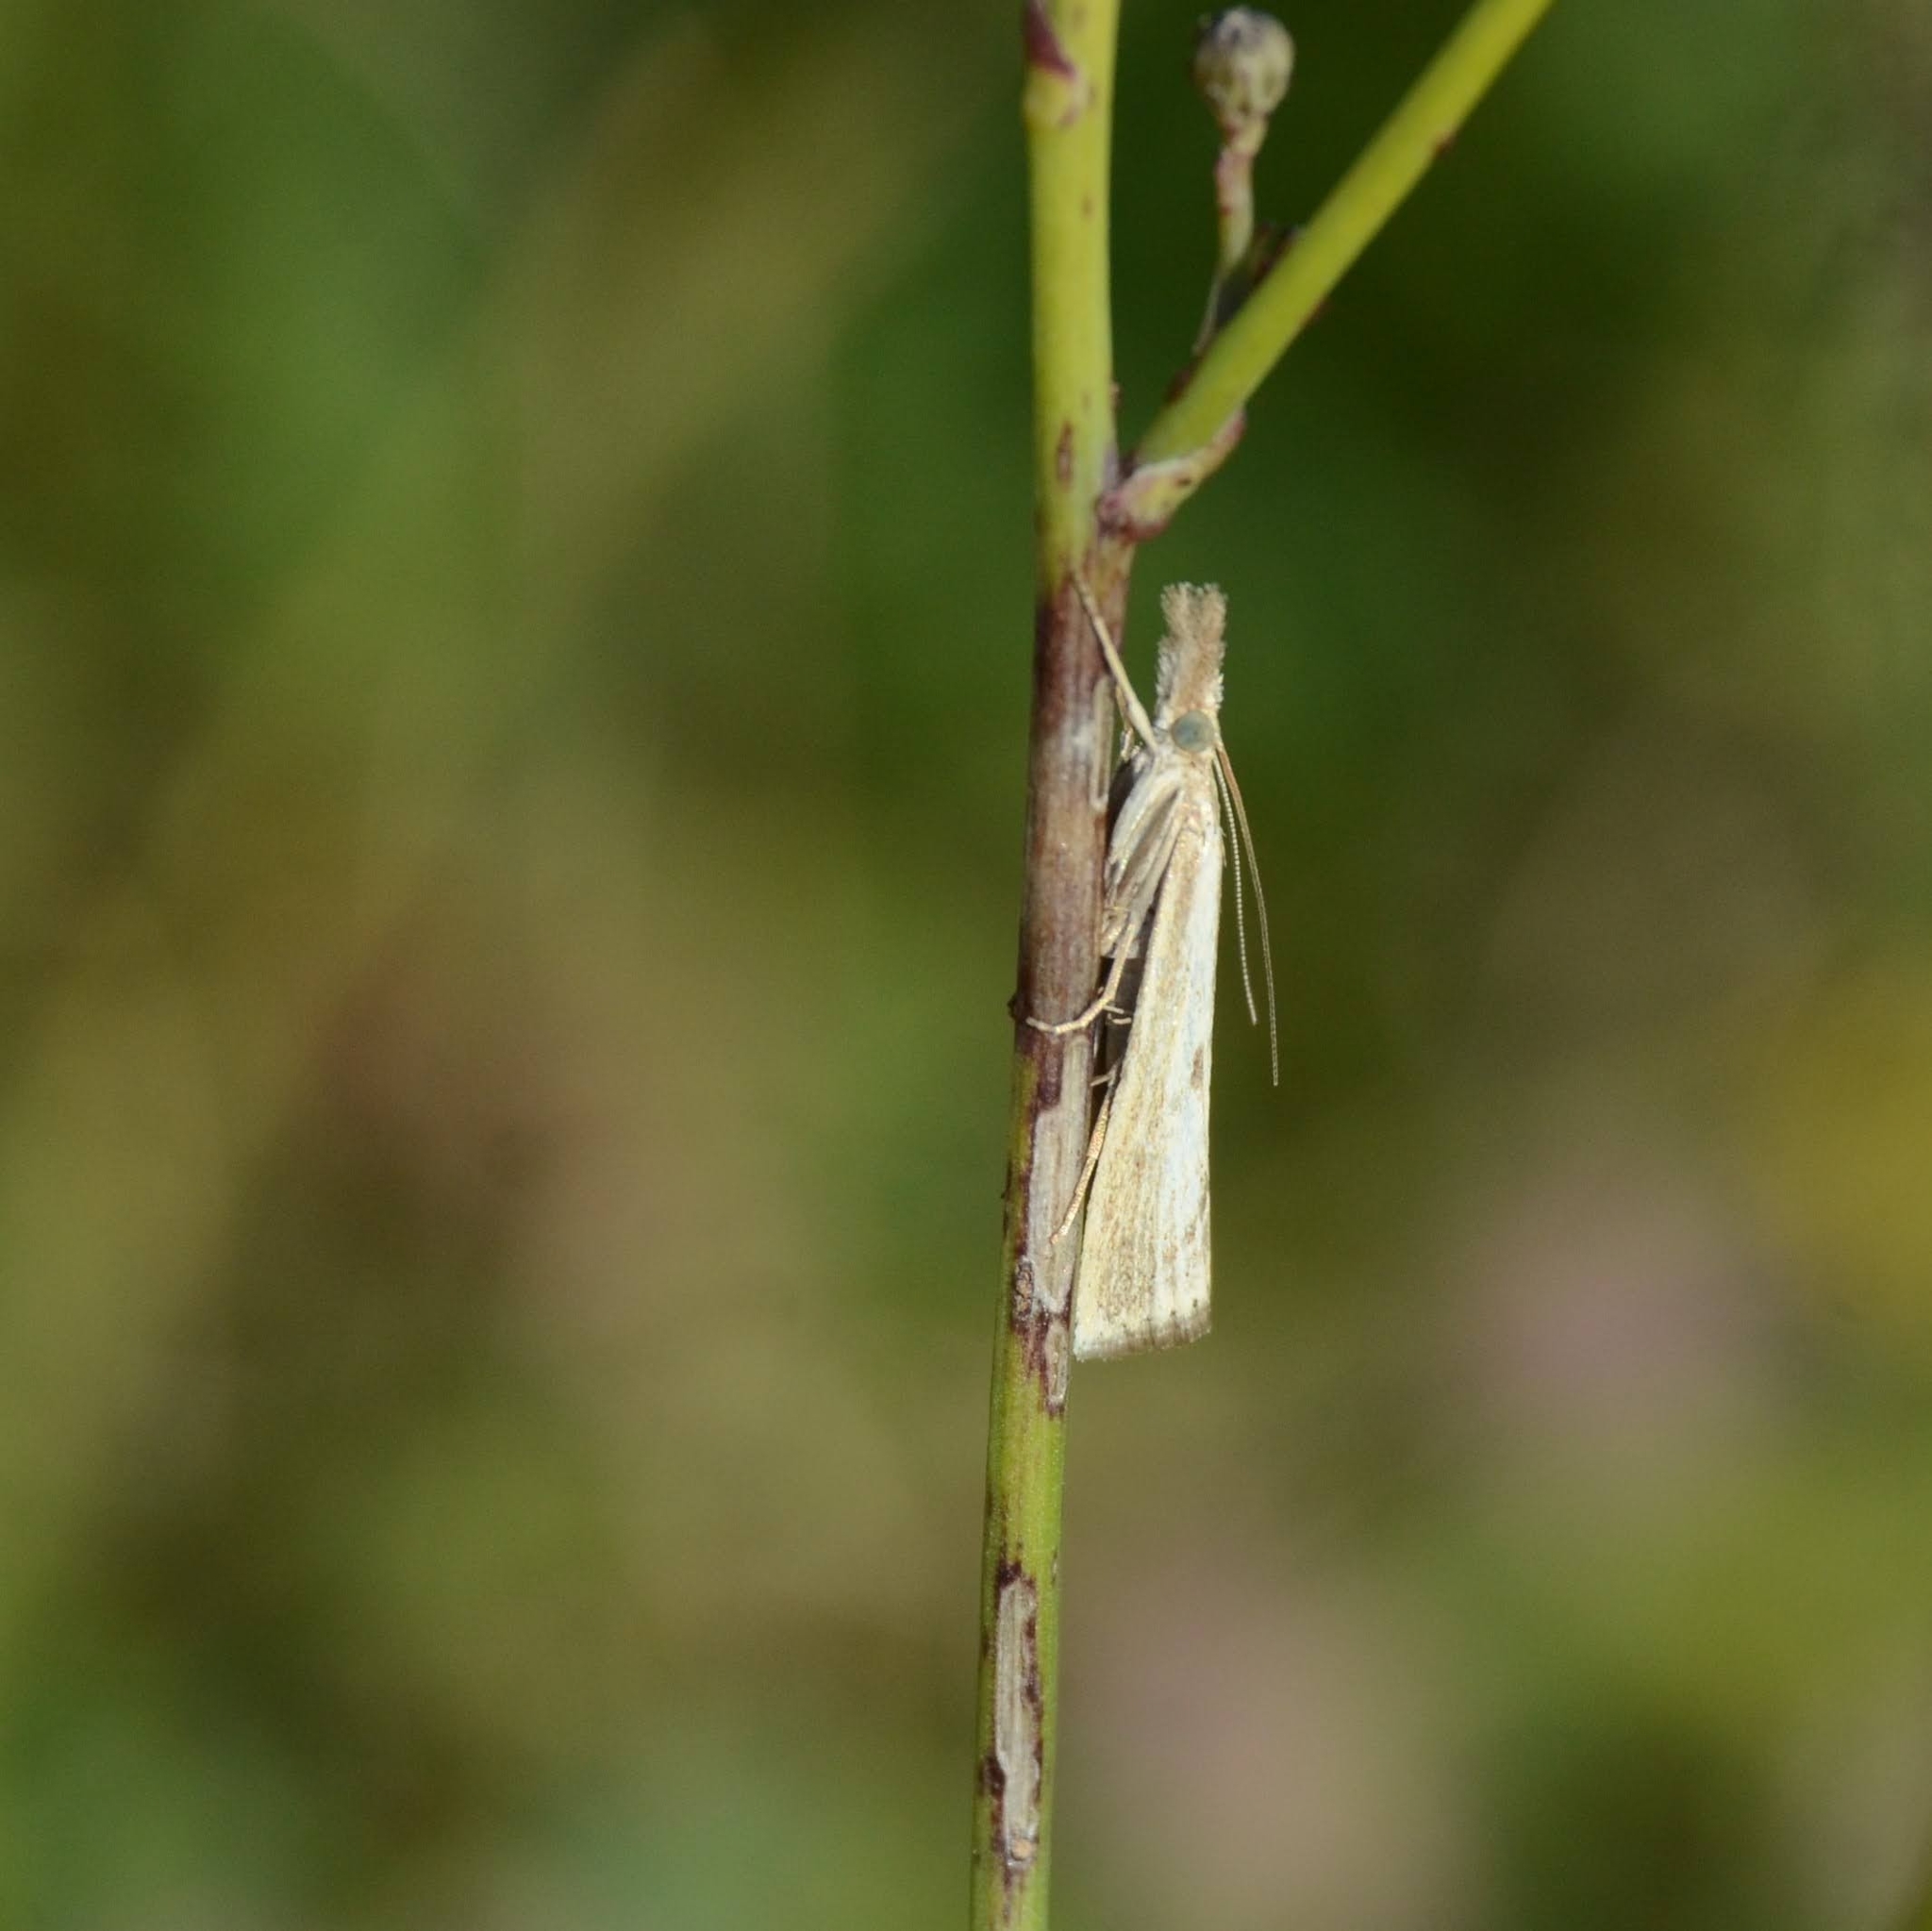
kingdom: Animalia
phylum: Arthropoda
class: Insecta
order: Lepidoptera
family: Crambidae
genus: Agriphila
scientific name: Agriphila inquinatella
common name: Barred grass-veneer
